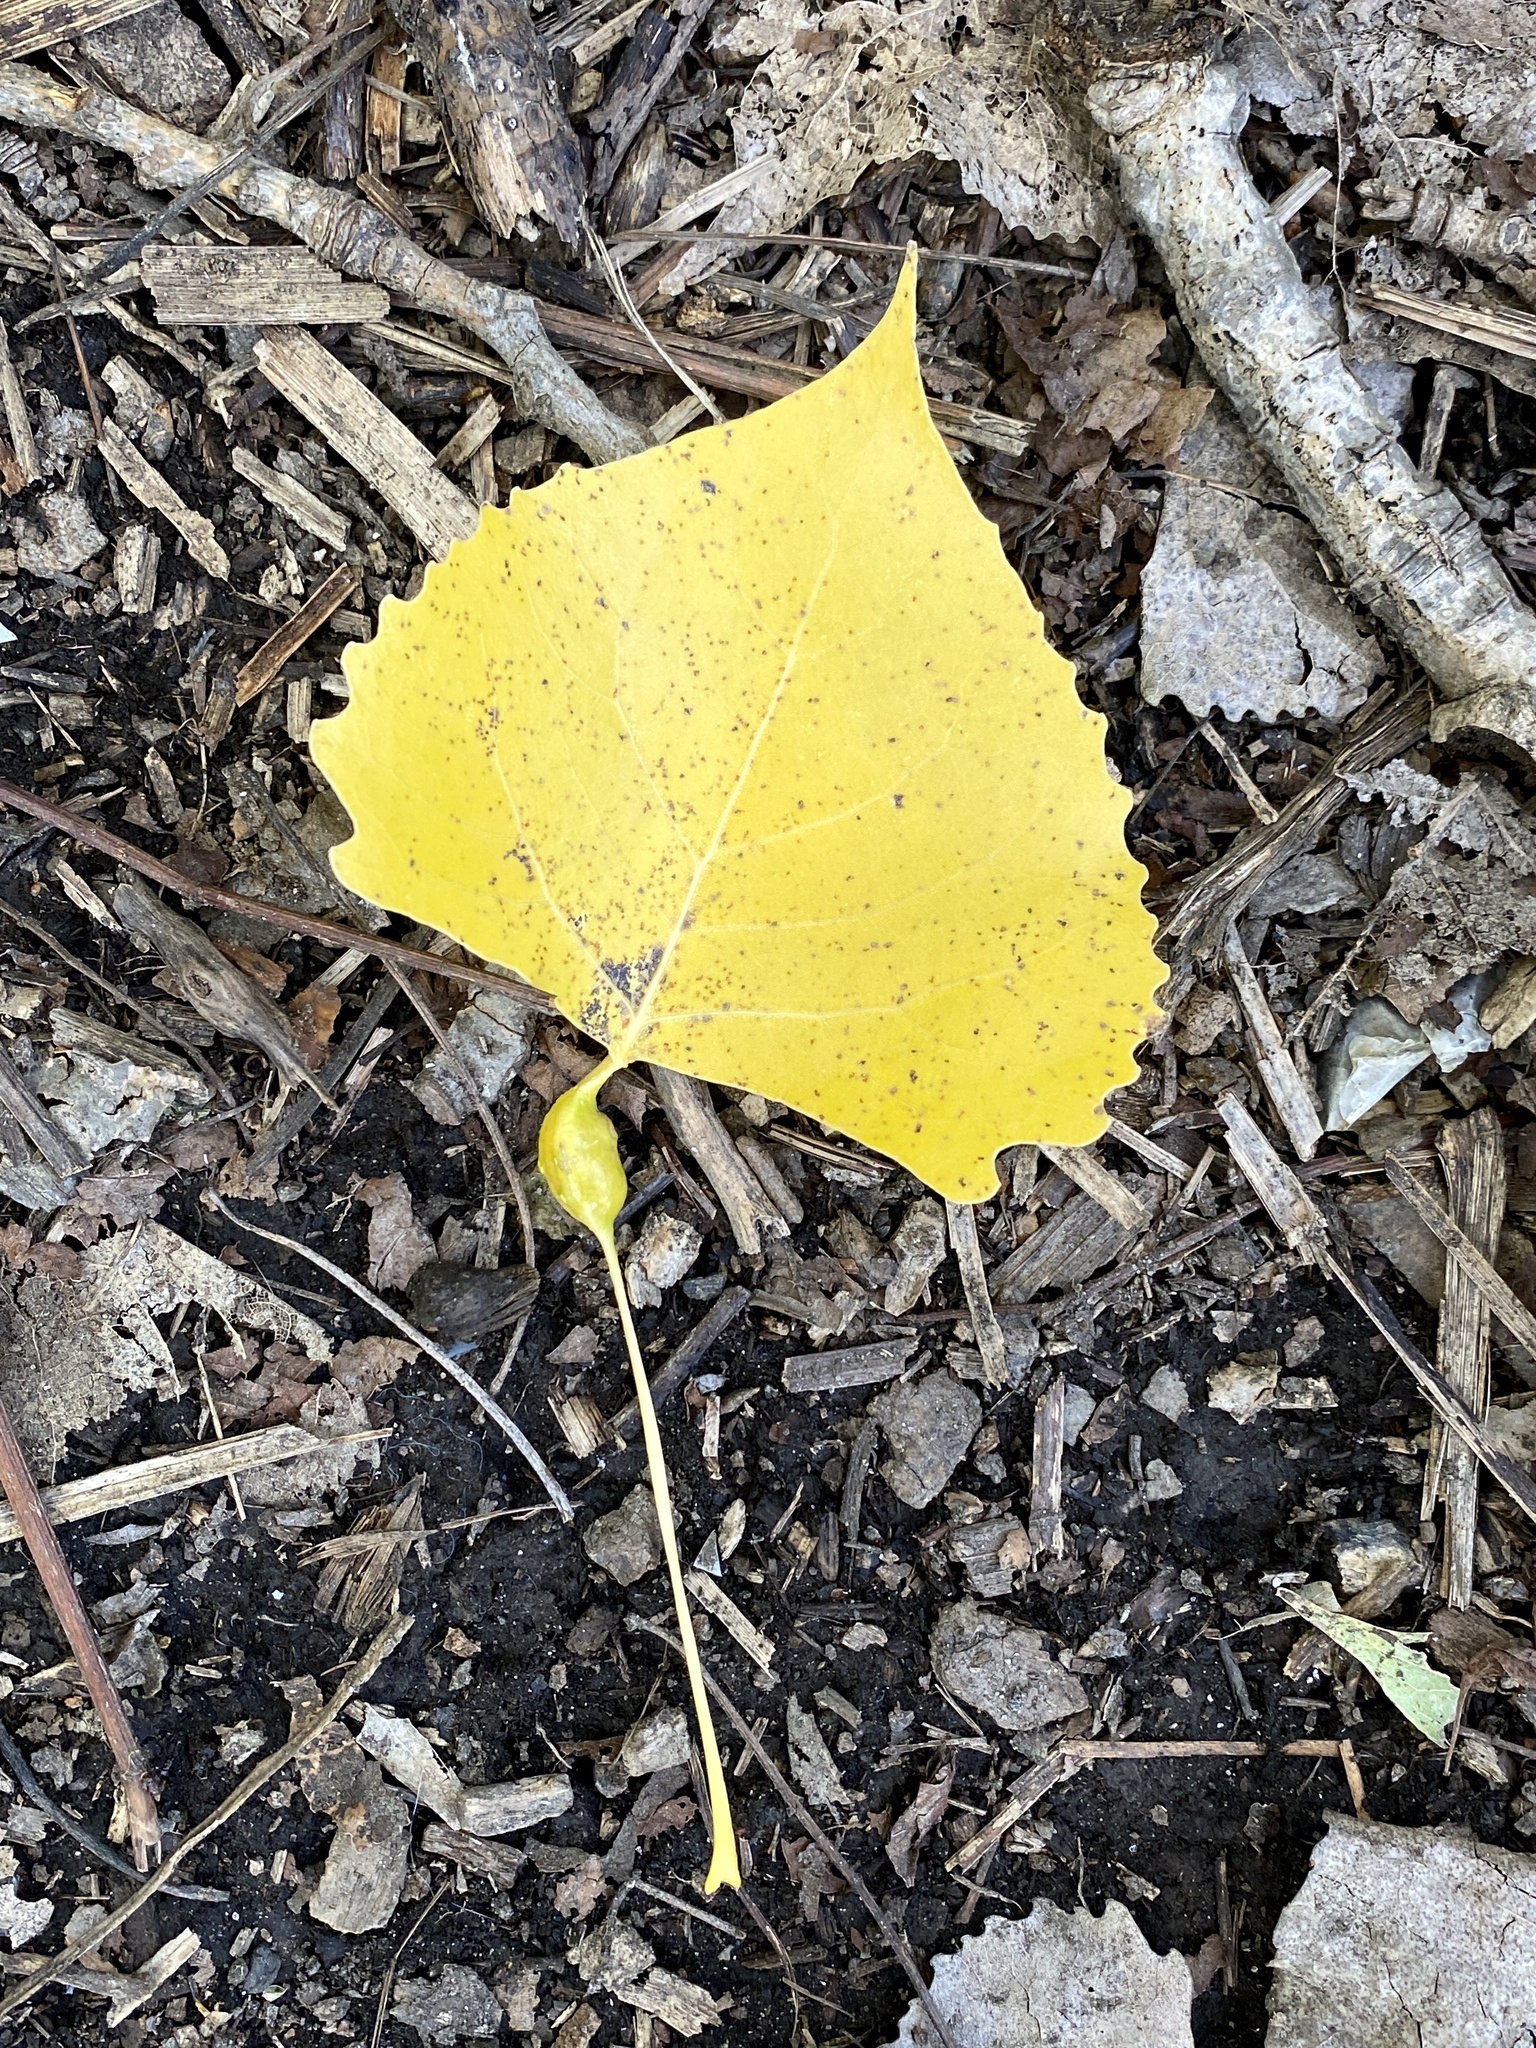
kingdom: Animalia
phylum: Arthropoda
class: Insecta
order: Hemiptera
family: Aphididae
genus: Pemphigus
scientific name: Pemphigus populitransversus
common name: Poplar petiolegall aphid
